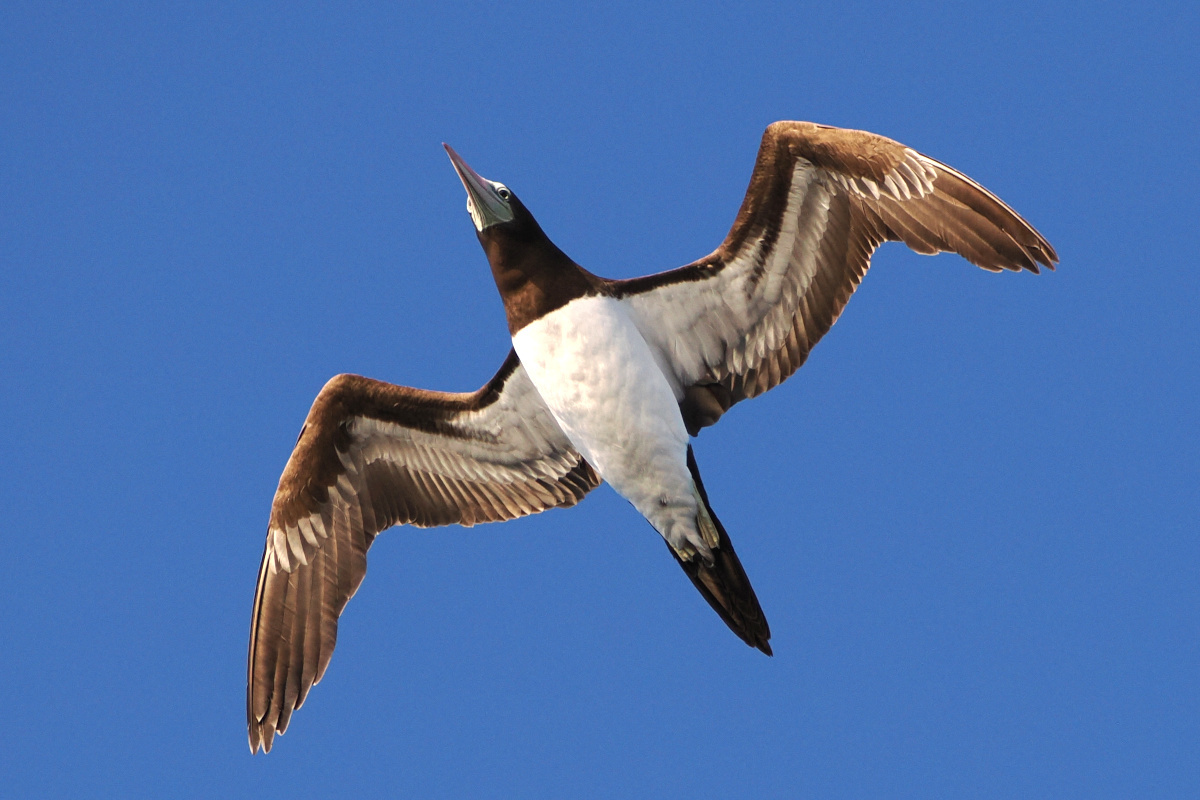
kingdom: Animalia
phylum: Chordata
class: Aves
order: Suliformes
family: Sulidae
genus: Sula
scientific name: Sula leucogaster
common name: Brown booby
